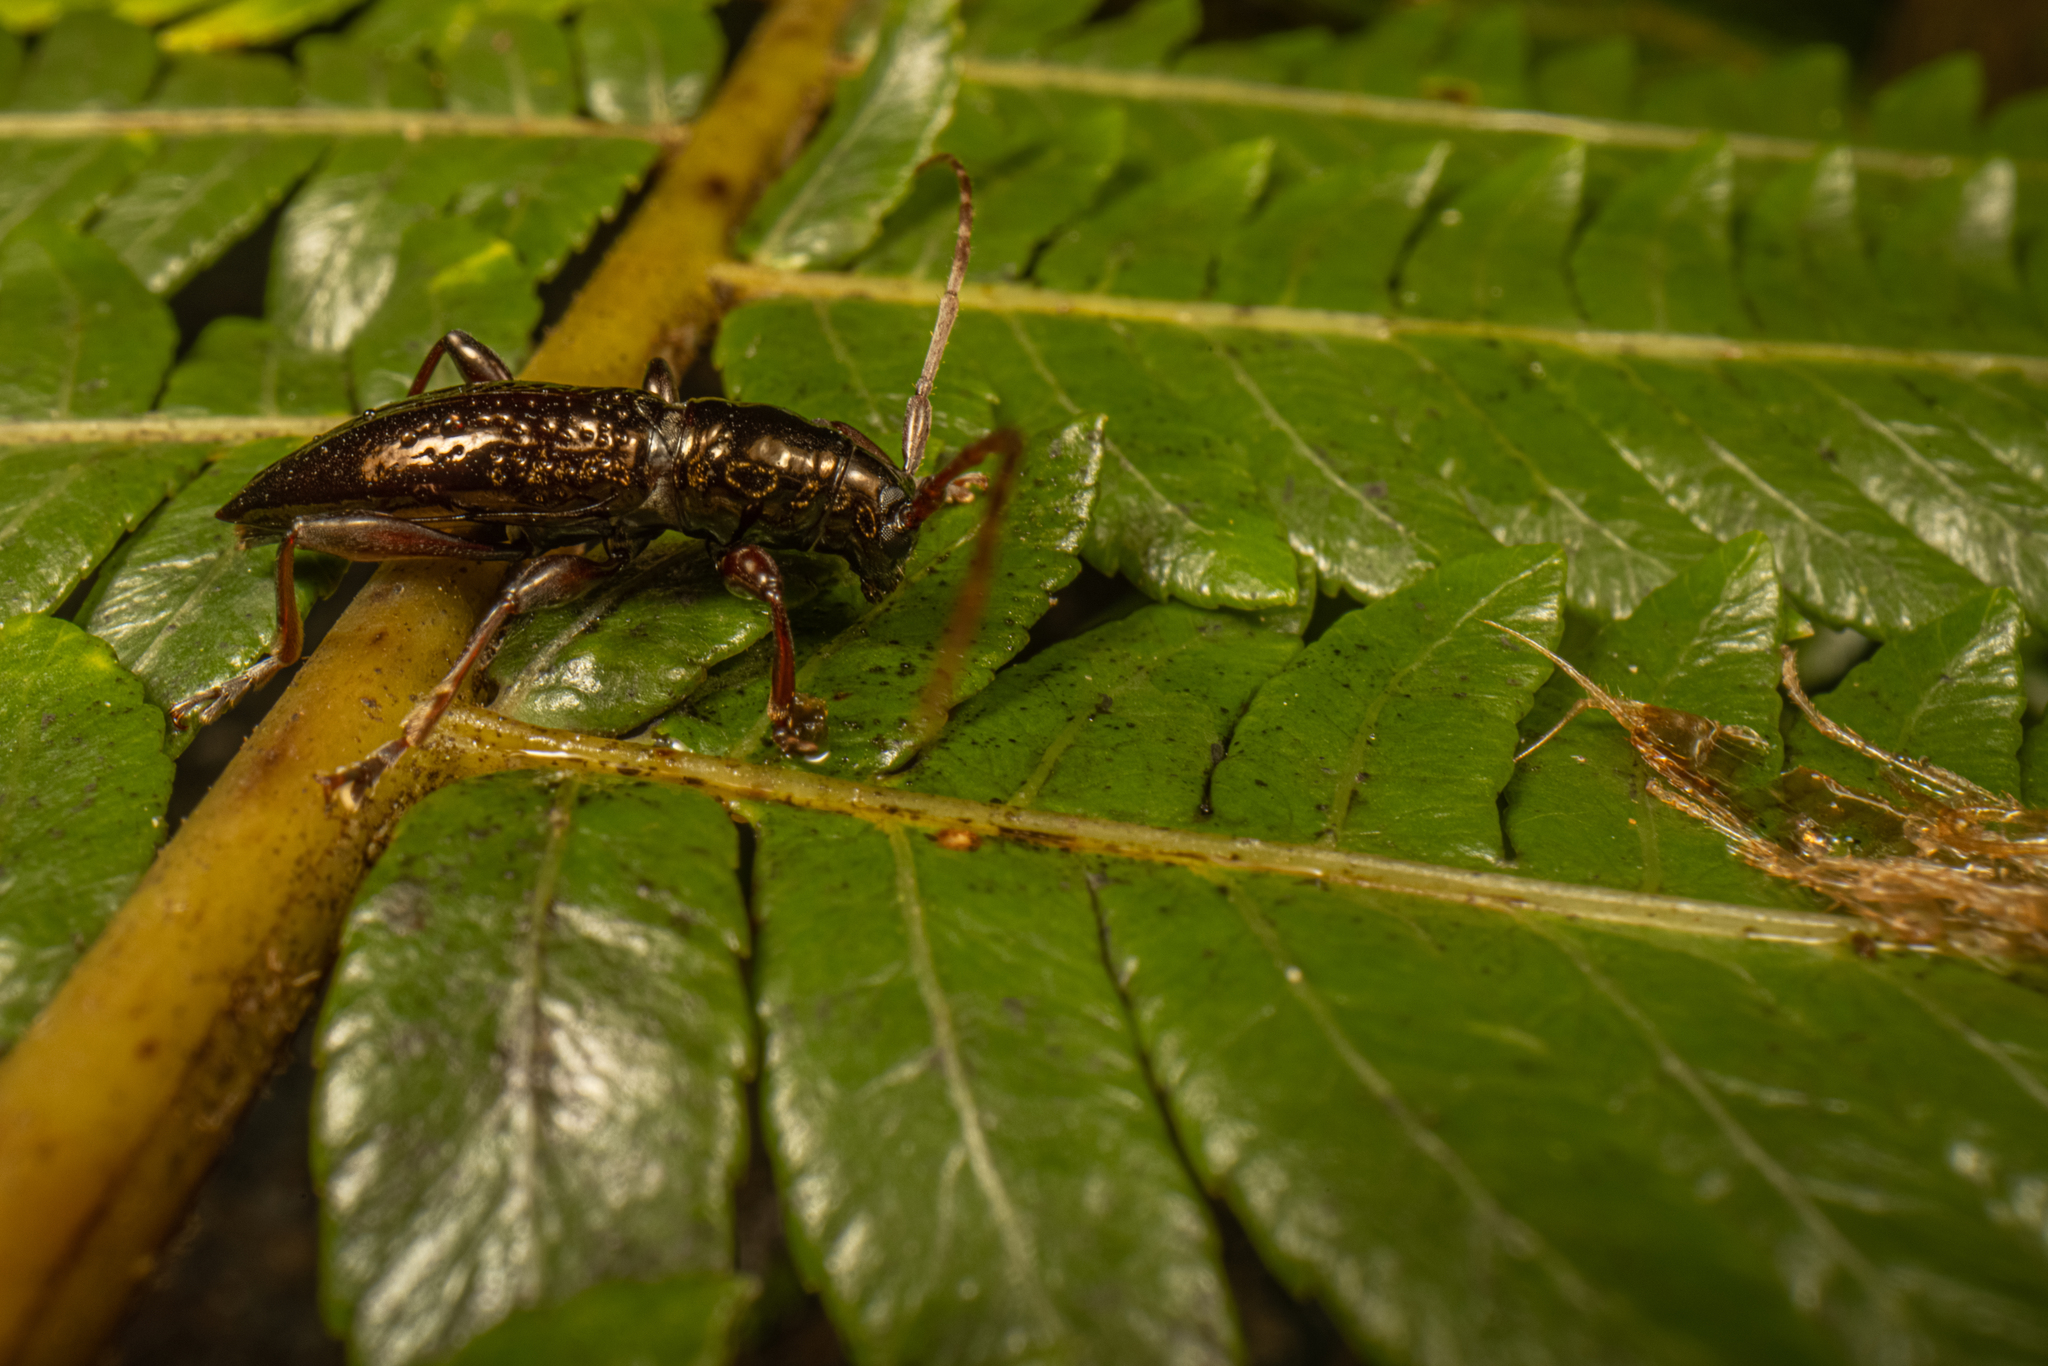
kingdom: Animalia
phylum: Arthropoda
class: Insecta
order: Coleoptera
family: Cerambycidae
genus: Xylotoles
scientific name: Xylotoles nudus
